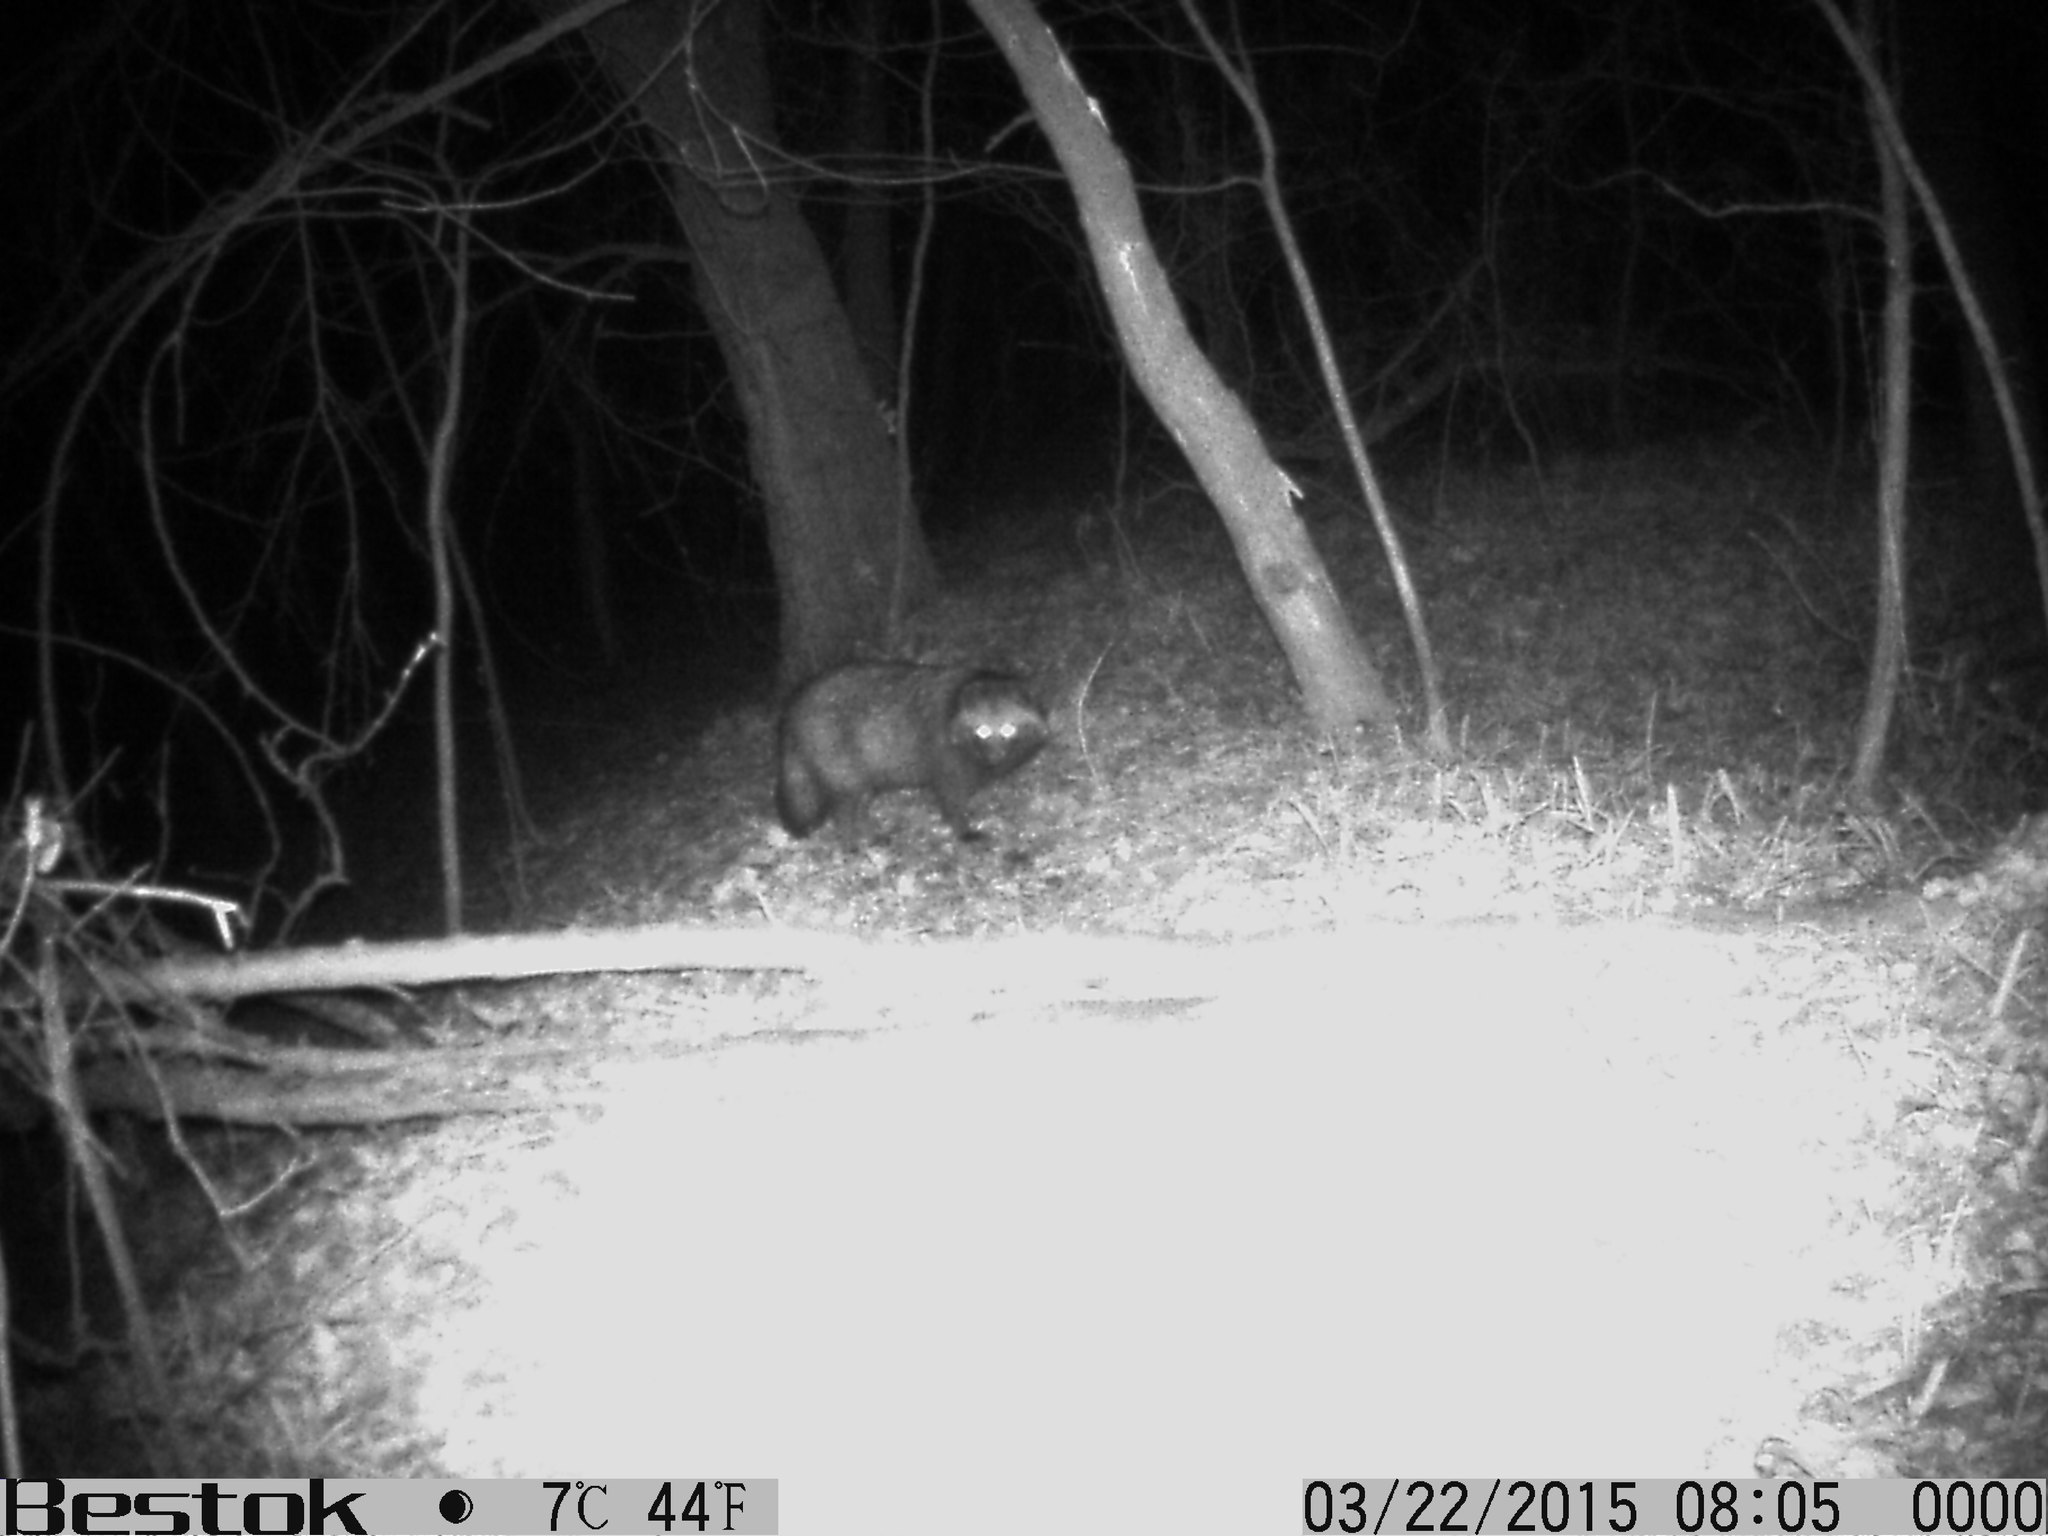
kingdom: Animalia
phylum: Chordata
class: Mammalia
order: Carnivora
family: Canidae
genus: Nyctereutes
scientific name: Nyctereutes procyonoides
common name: Raccoon dog
